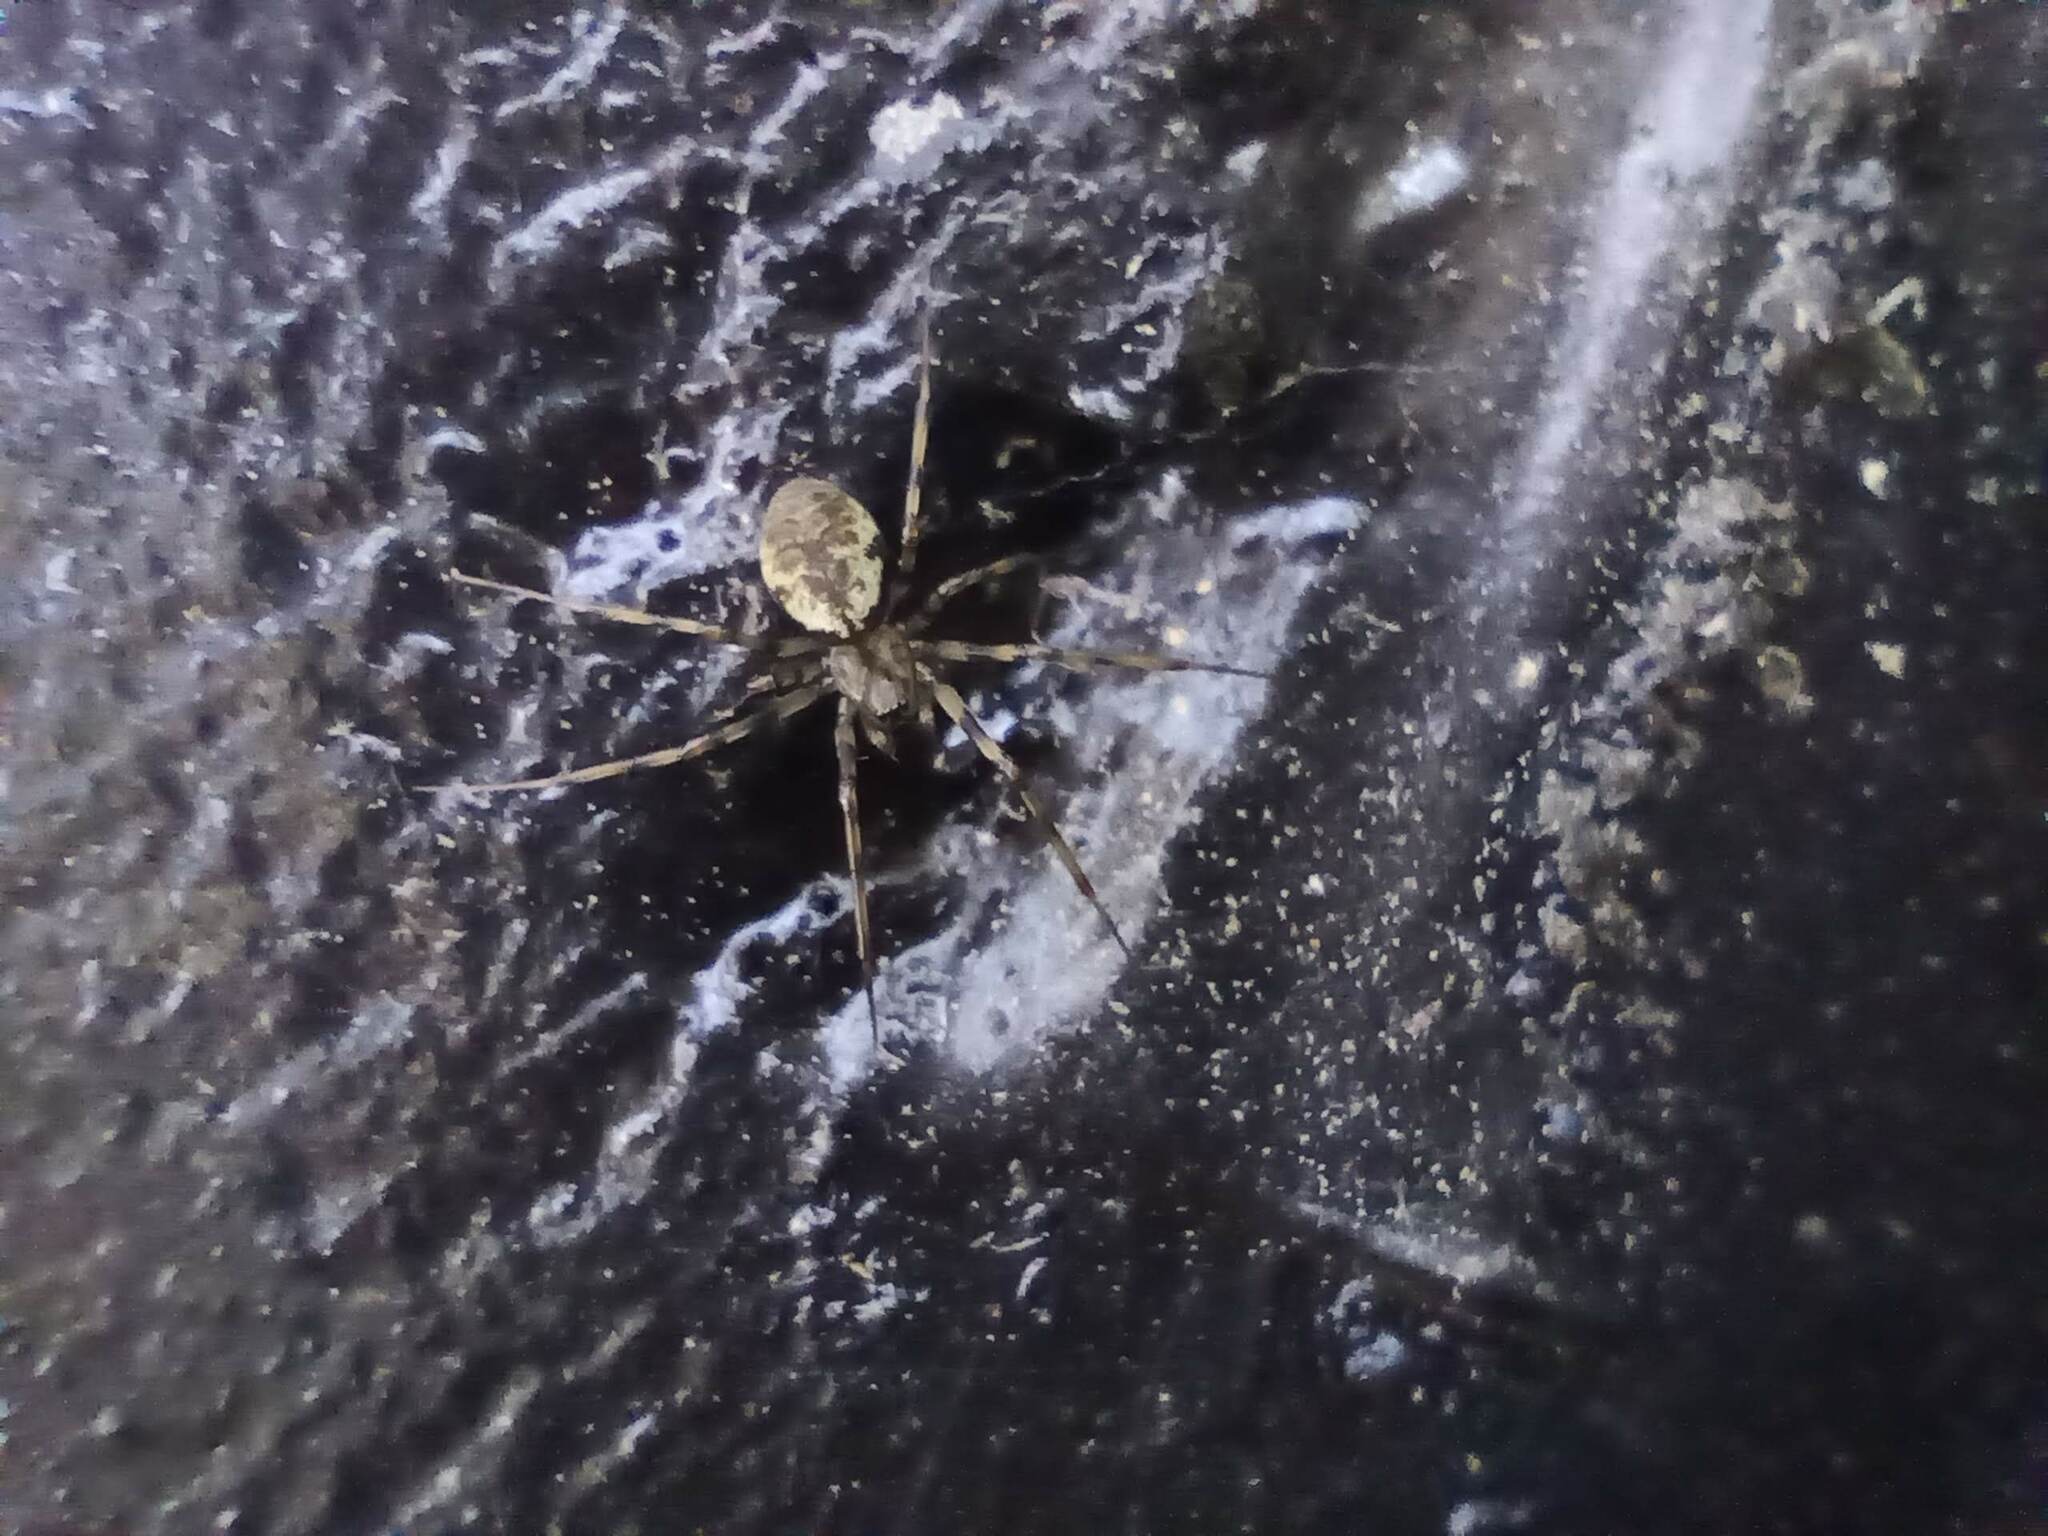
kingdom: Animalia
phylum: Arthropoda
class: Arachnida
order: Araneae
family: Linyphiidae
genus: Drapetisca
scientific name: Drapetisca socialis
